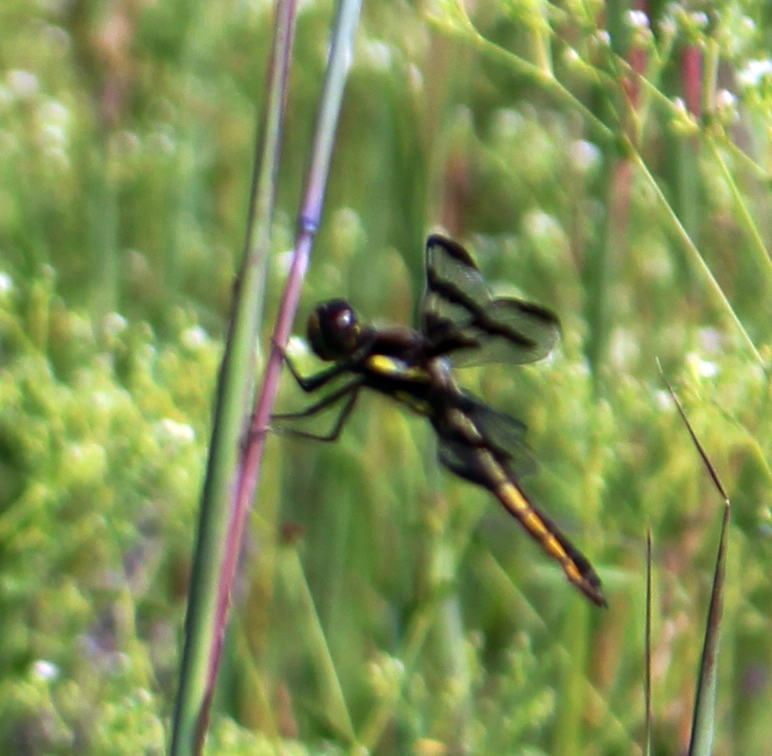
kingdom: Animalia
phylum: Arthropoda
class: Insecta
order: Odonata
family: Libellulidae
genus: Libellula
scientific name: Libellula pulchella
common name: Twelve-spotted skimmer
